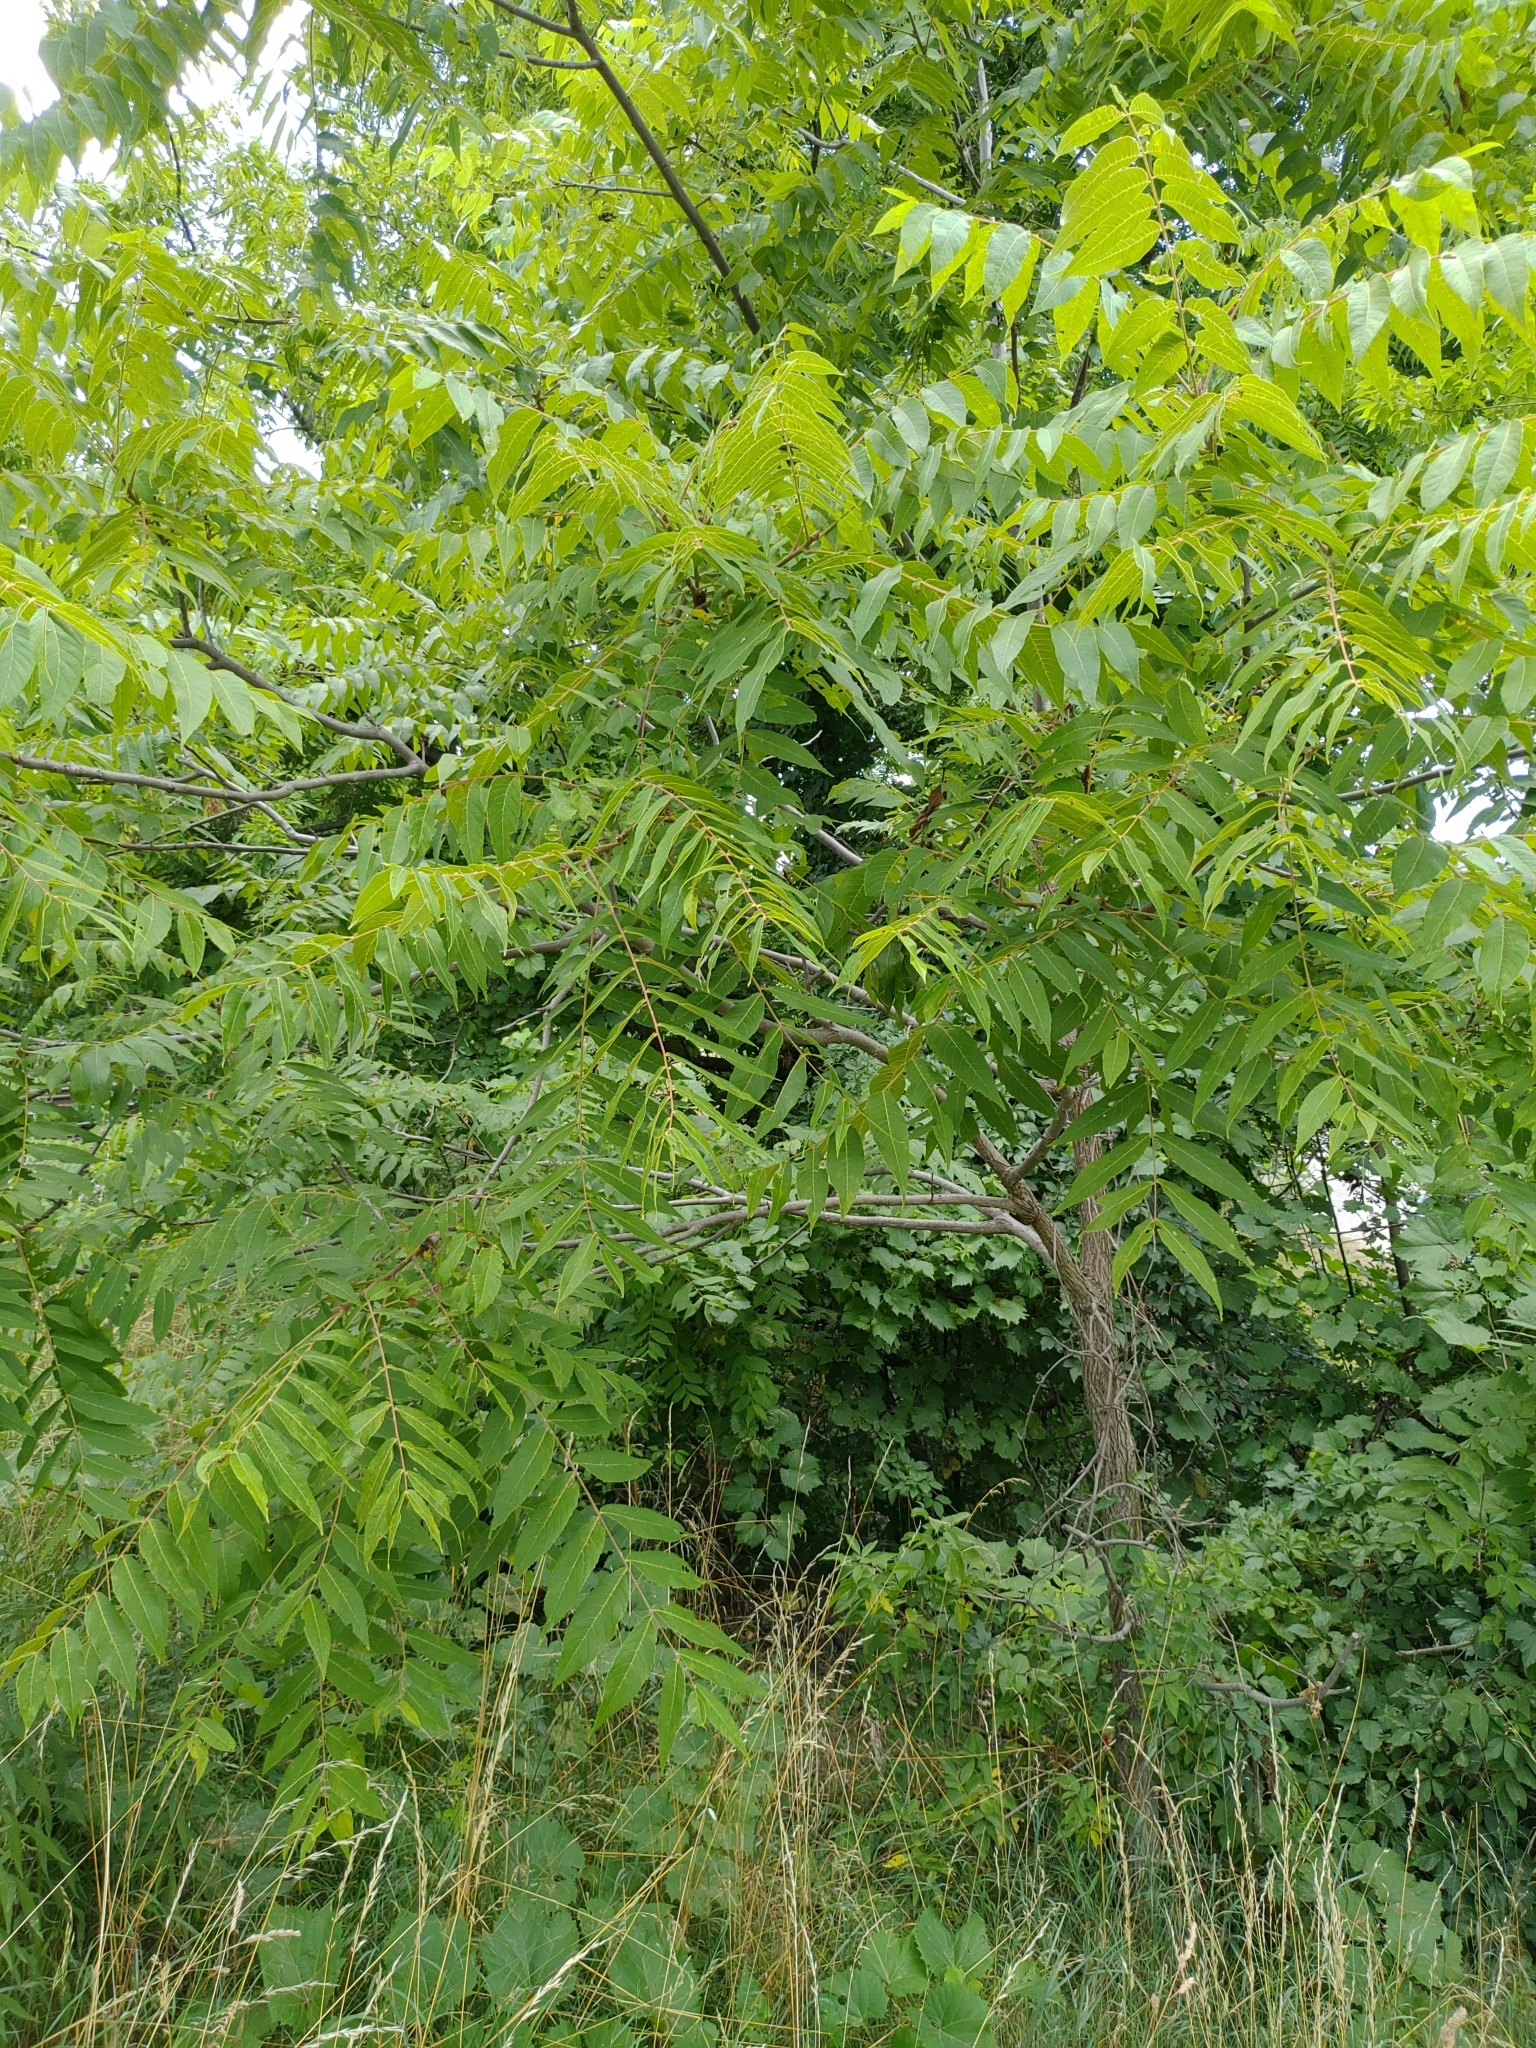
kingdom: Plantae
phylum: Tracheophyta
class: Magnoliopsida
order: Fagales
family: Juglandaceae
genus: Juglans
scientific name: Juglans nigra
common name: Black walnut
